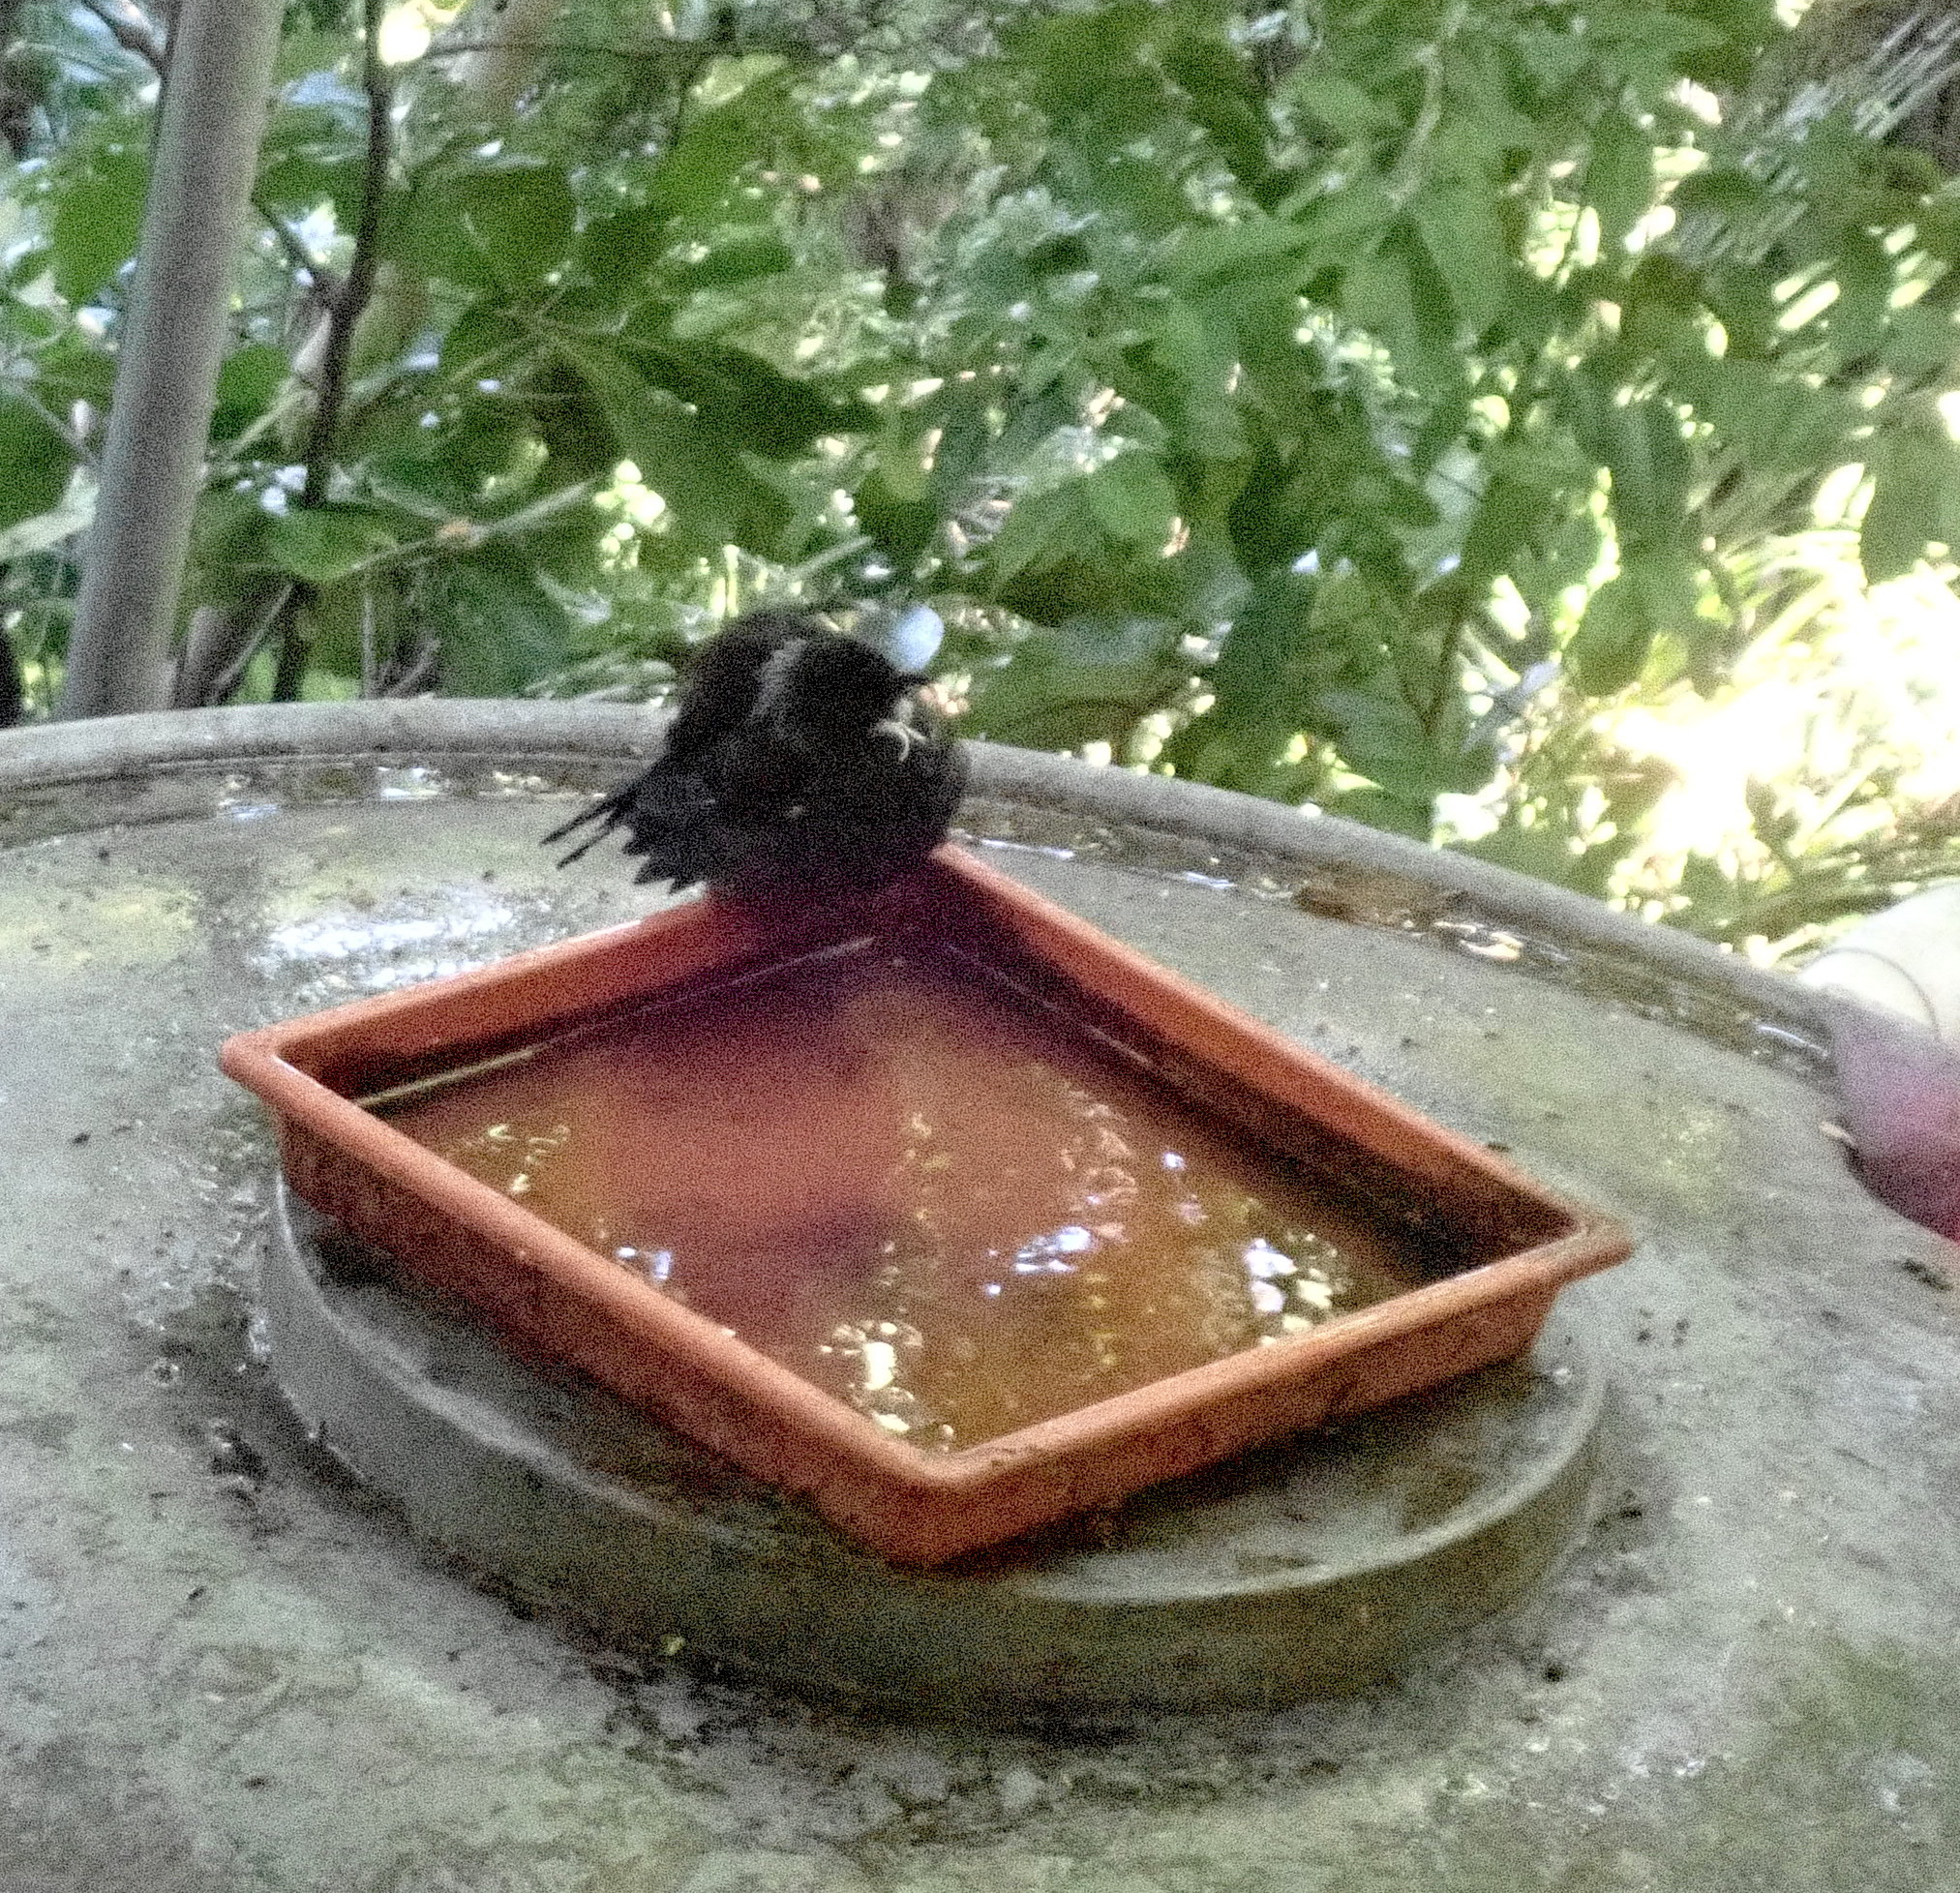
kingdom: Animalia
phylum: Chordata
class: Aves
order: Passeriformes
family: Meliphagidae
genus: Prosthemadera
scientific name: Prosthemadera novaeseelandiae
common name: Tui
